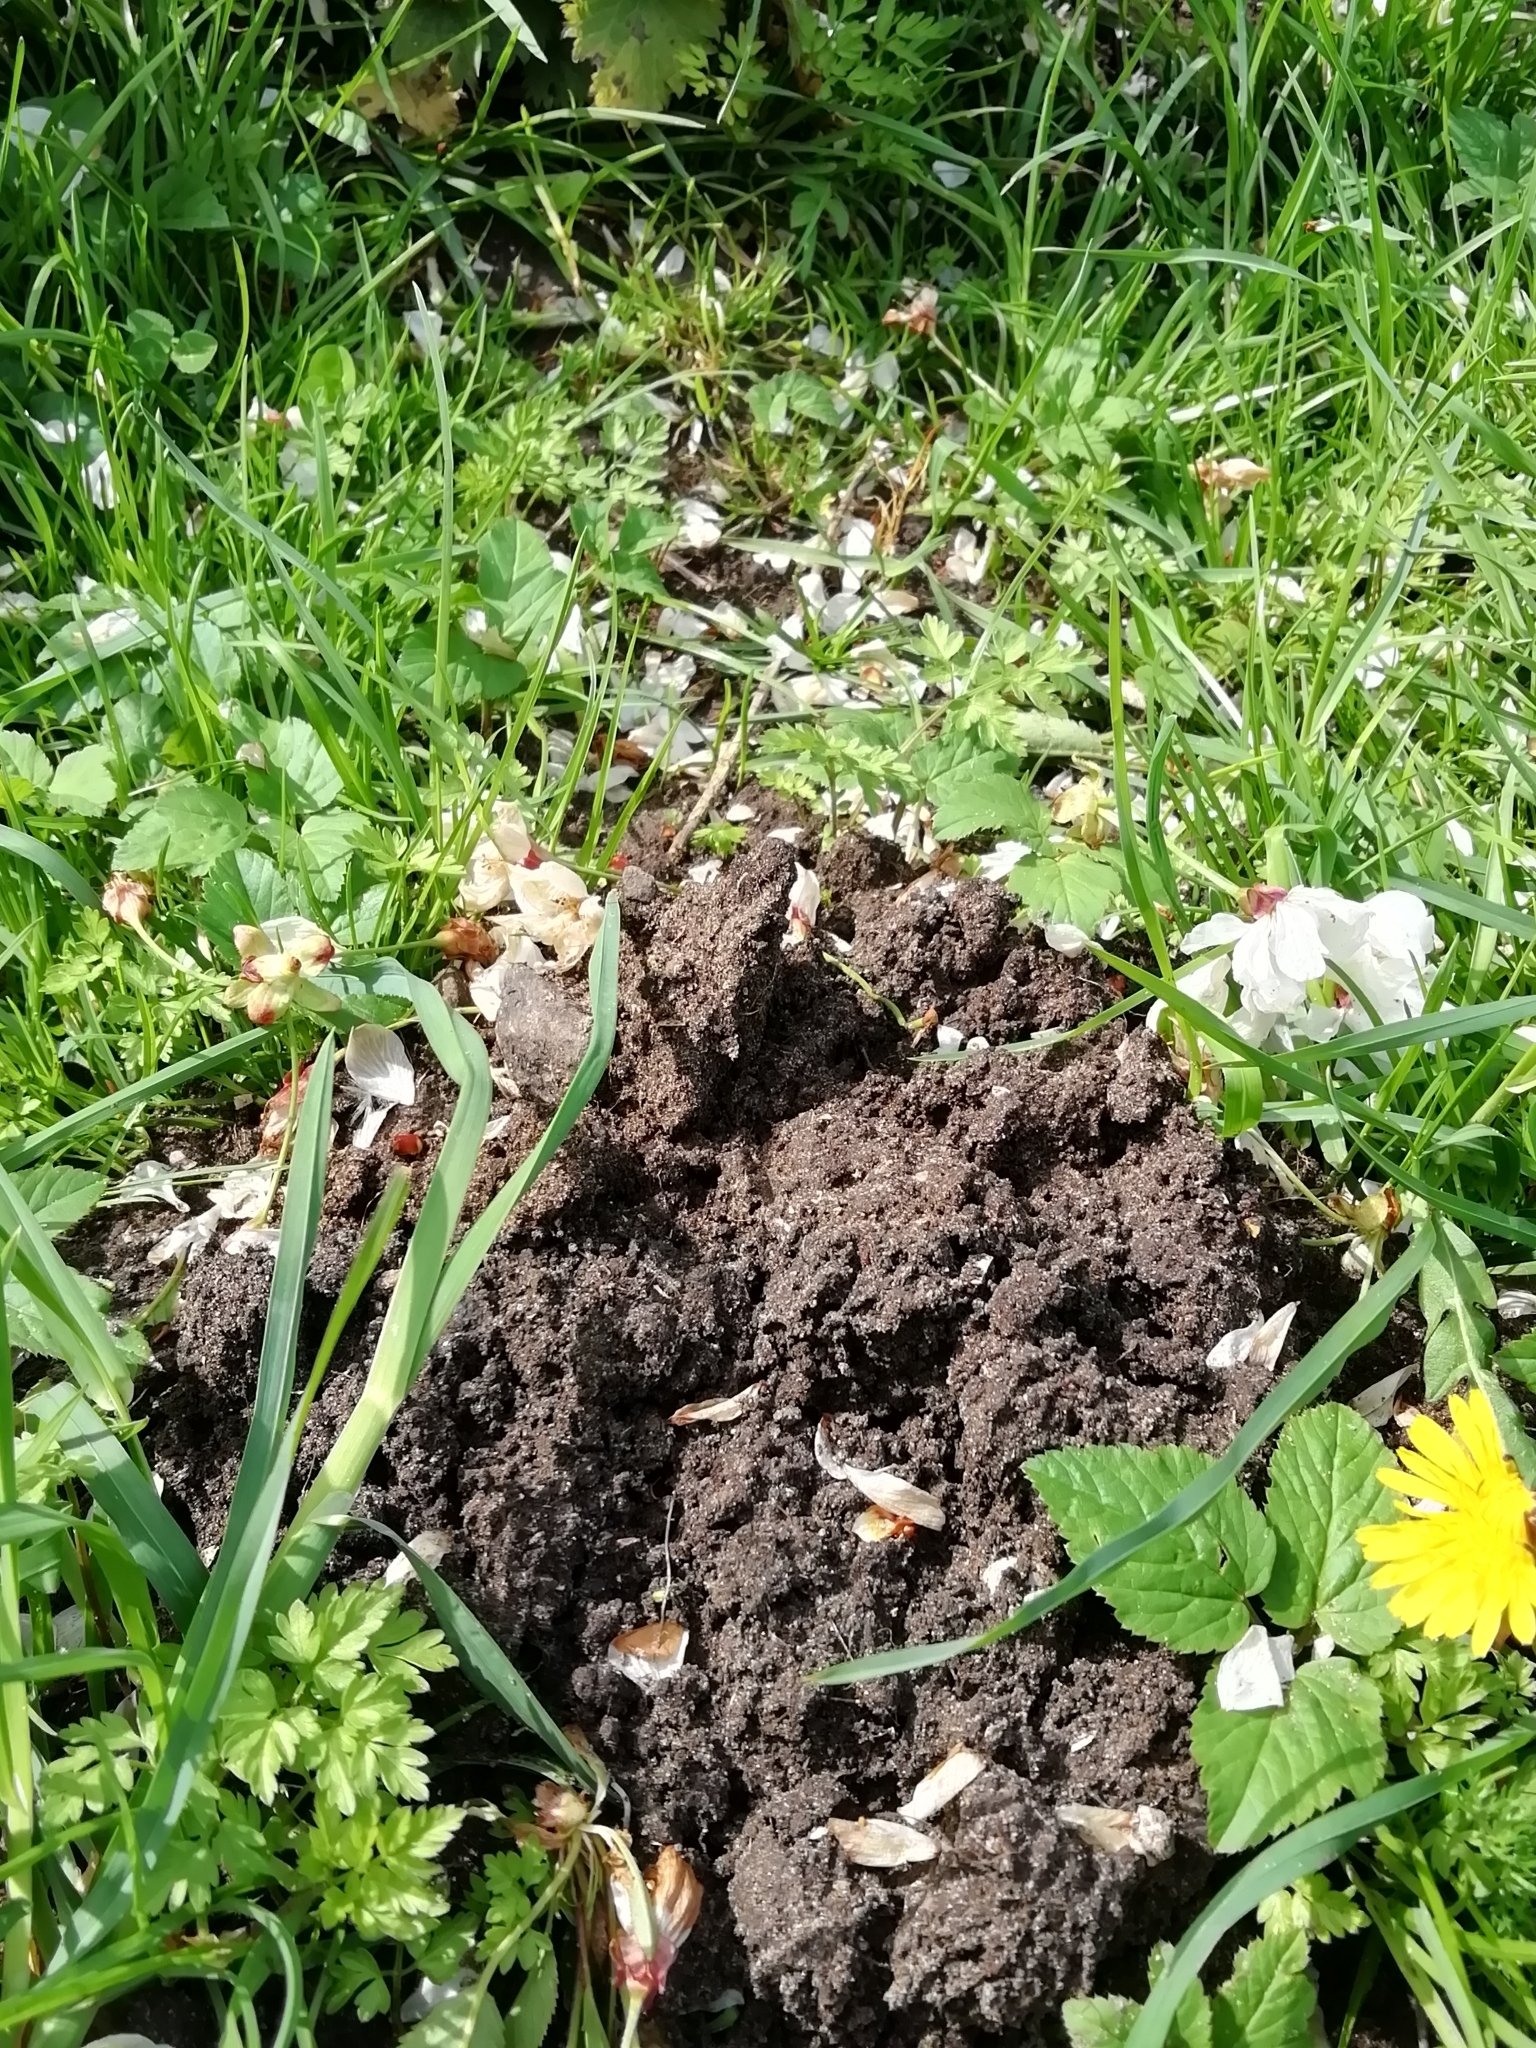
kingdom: Animalia
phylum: Chordata
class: Mammalia
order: Soricomorpha
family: Talpidae
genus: Talpa
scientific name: Talpa europaea
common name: European mole
